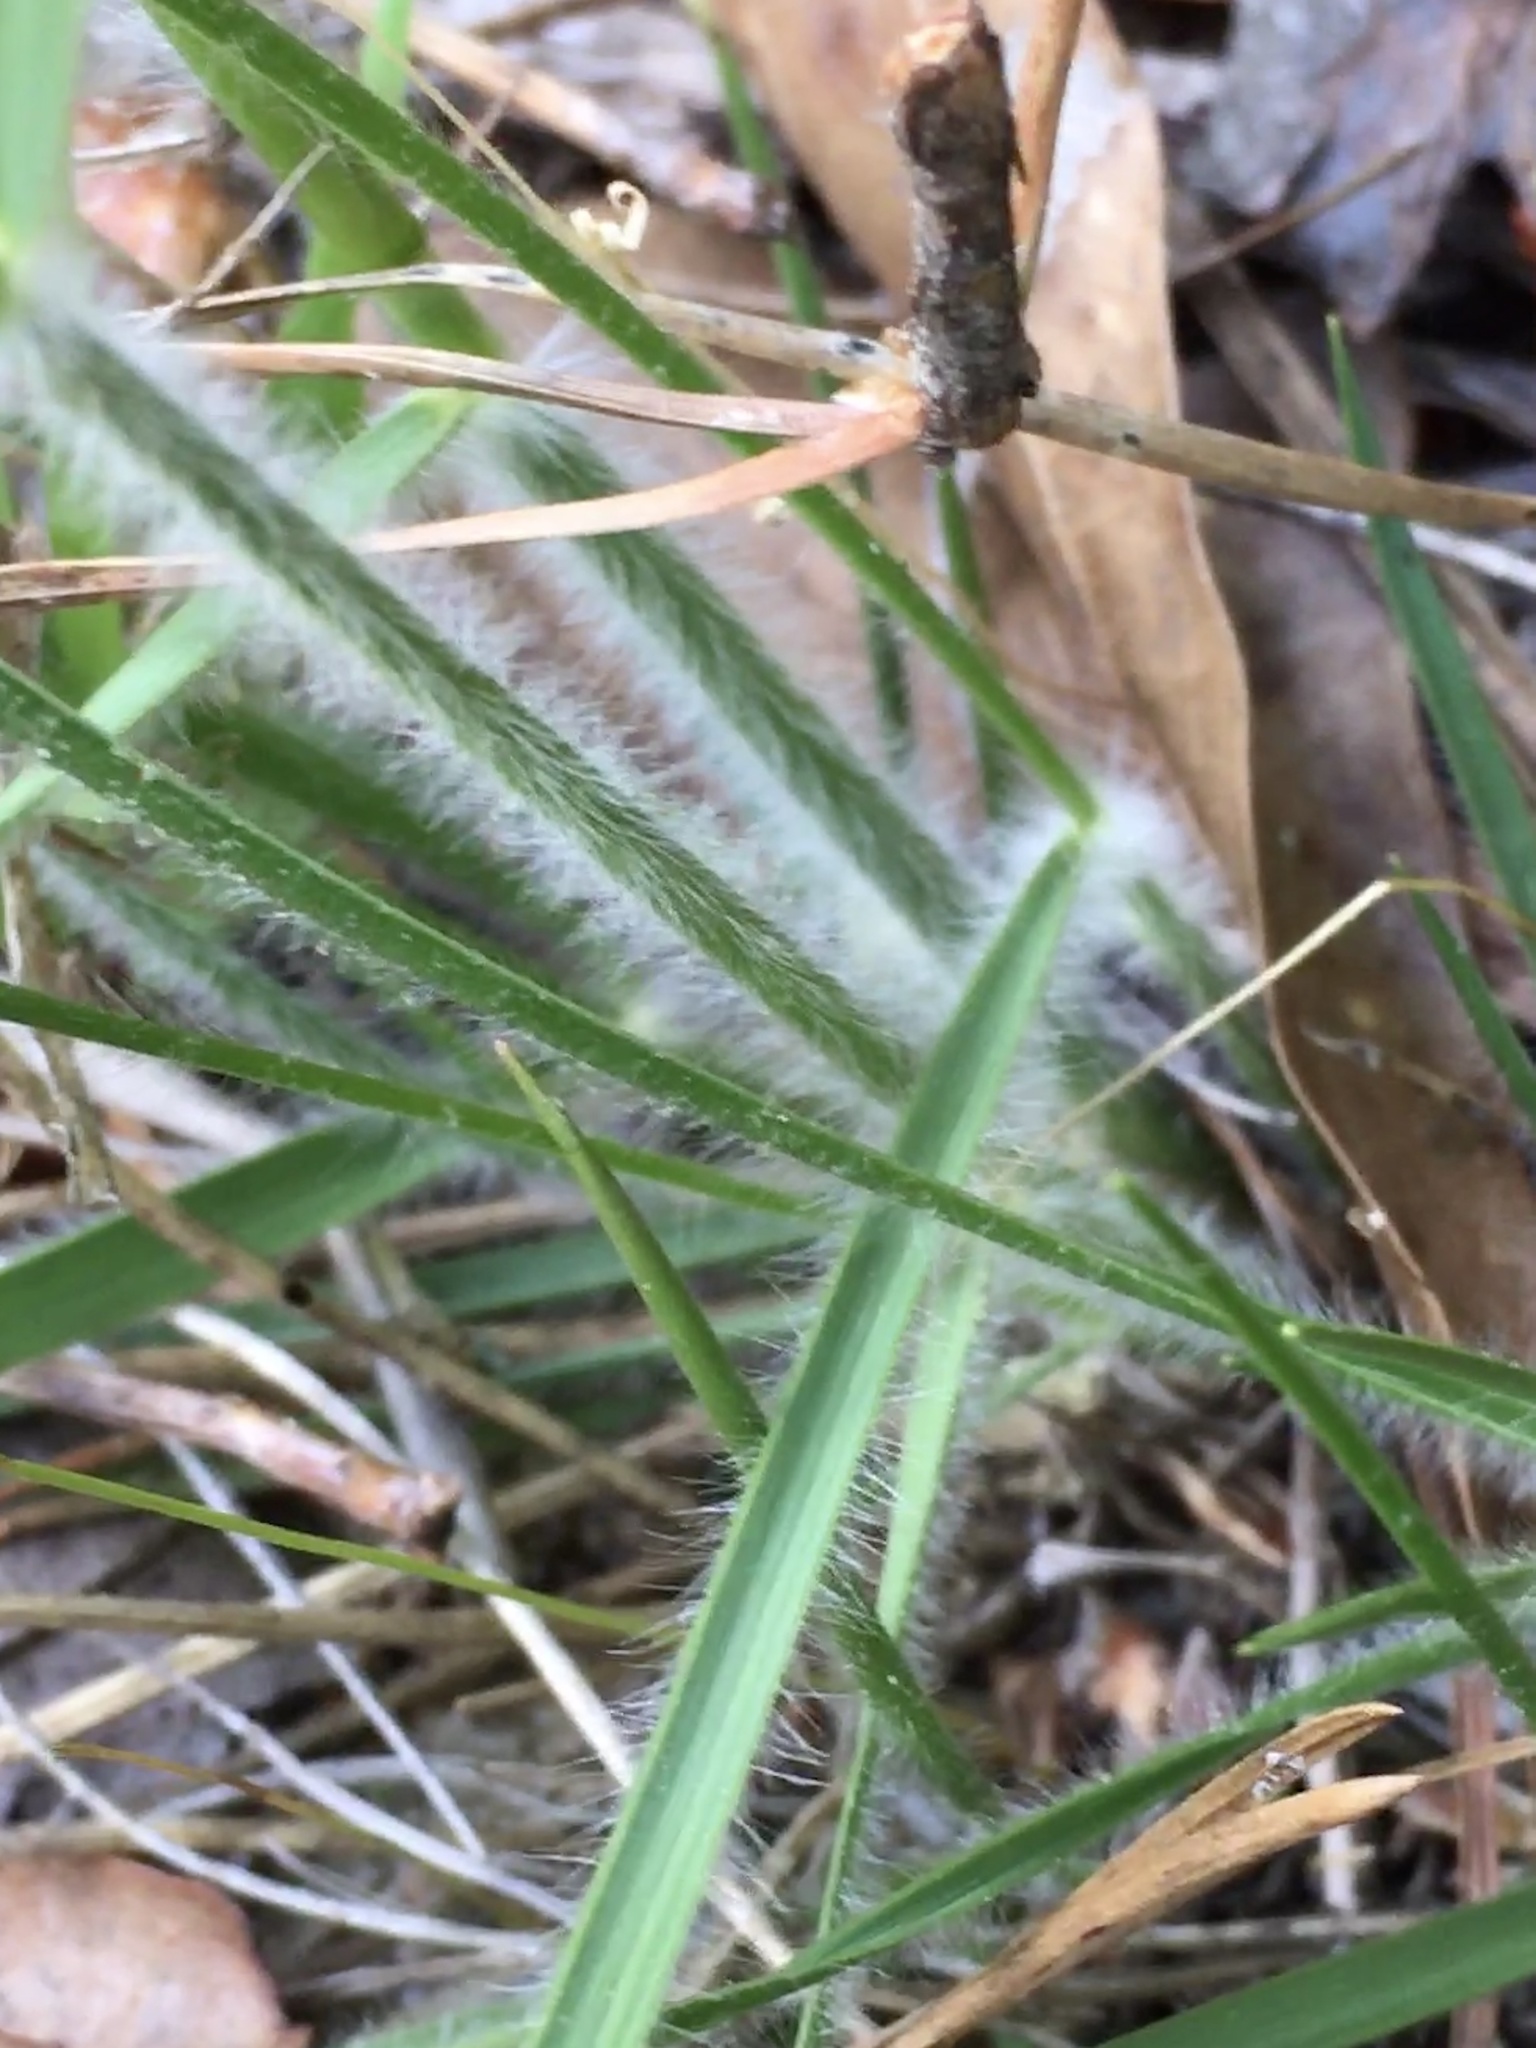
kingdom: Plantae
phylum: Tracheophyta
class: Liliopsida
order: Poales
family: Poaceae
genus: Danthonia
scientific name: Danthonia sericea
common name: Downy danthonia
